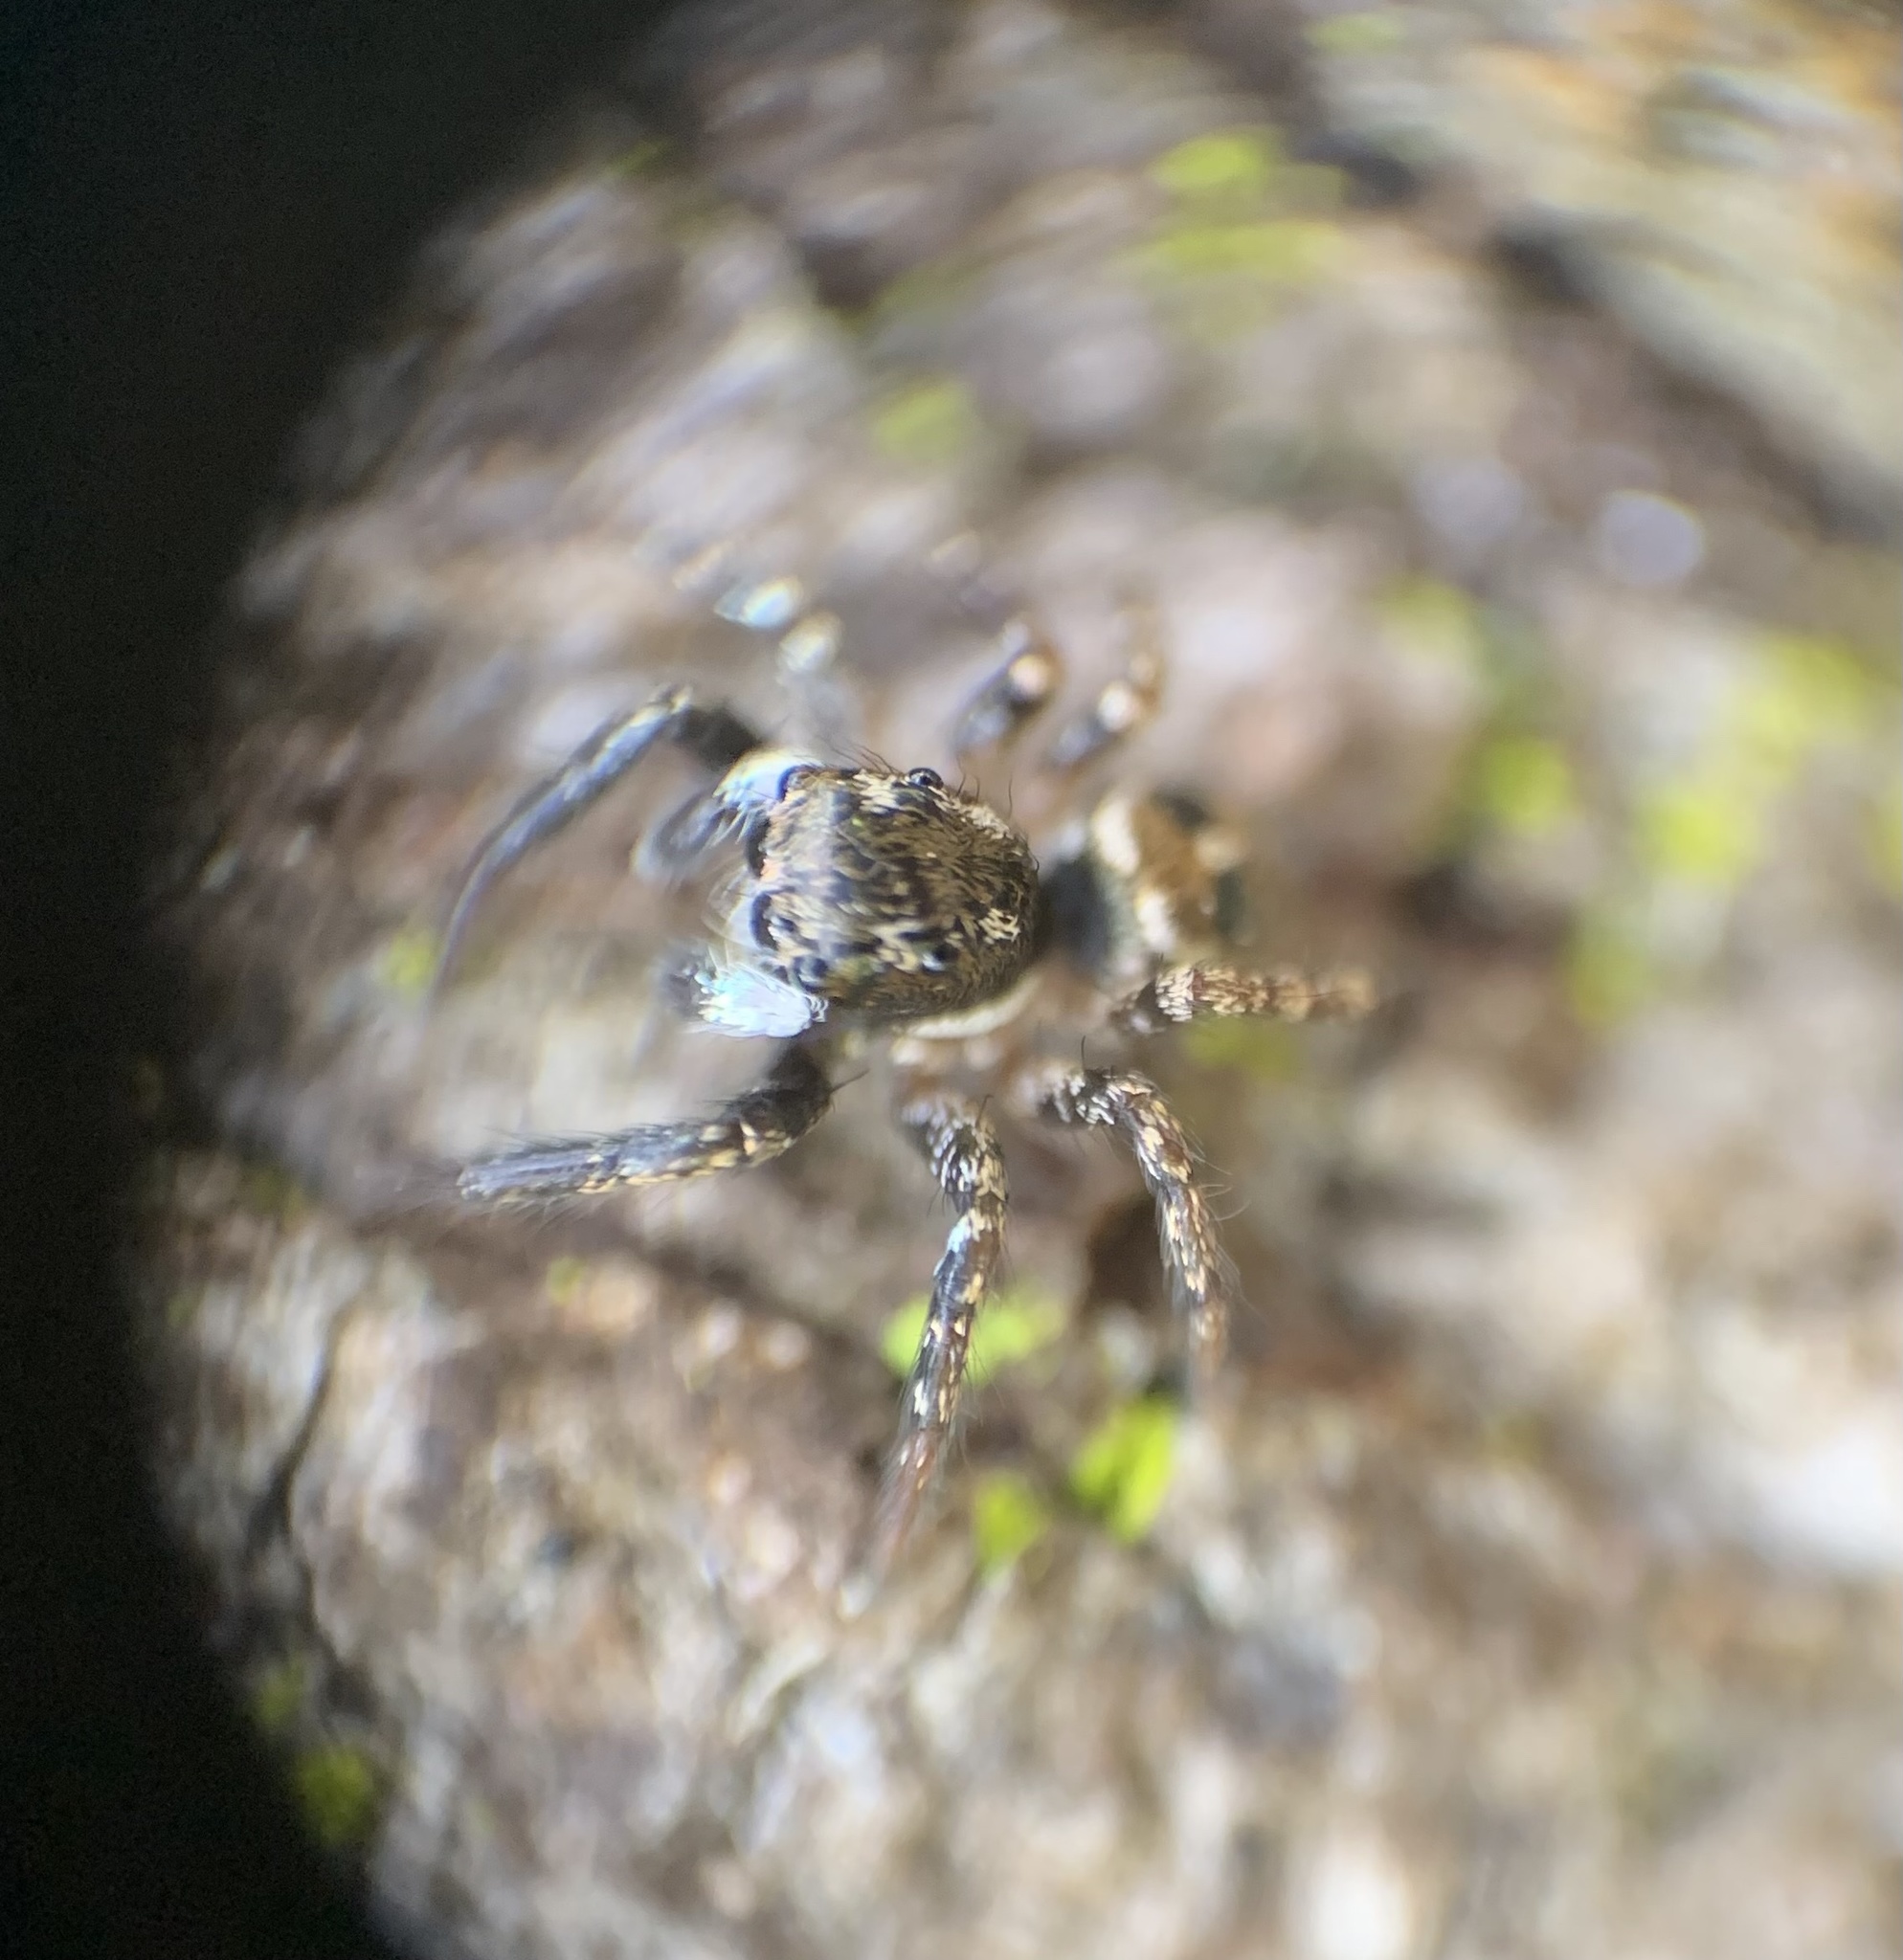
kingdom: Animalia
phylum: Arthropoda
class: Arachnida
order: Araneae
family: Salticidae
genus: Anasaitis
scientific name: Anasaitis canosa
